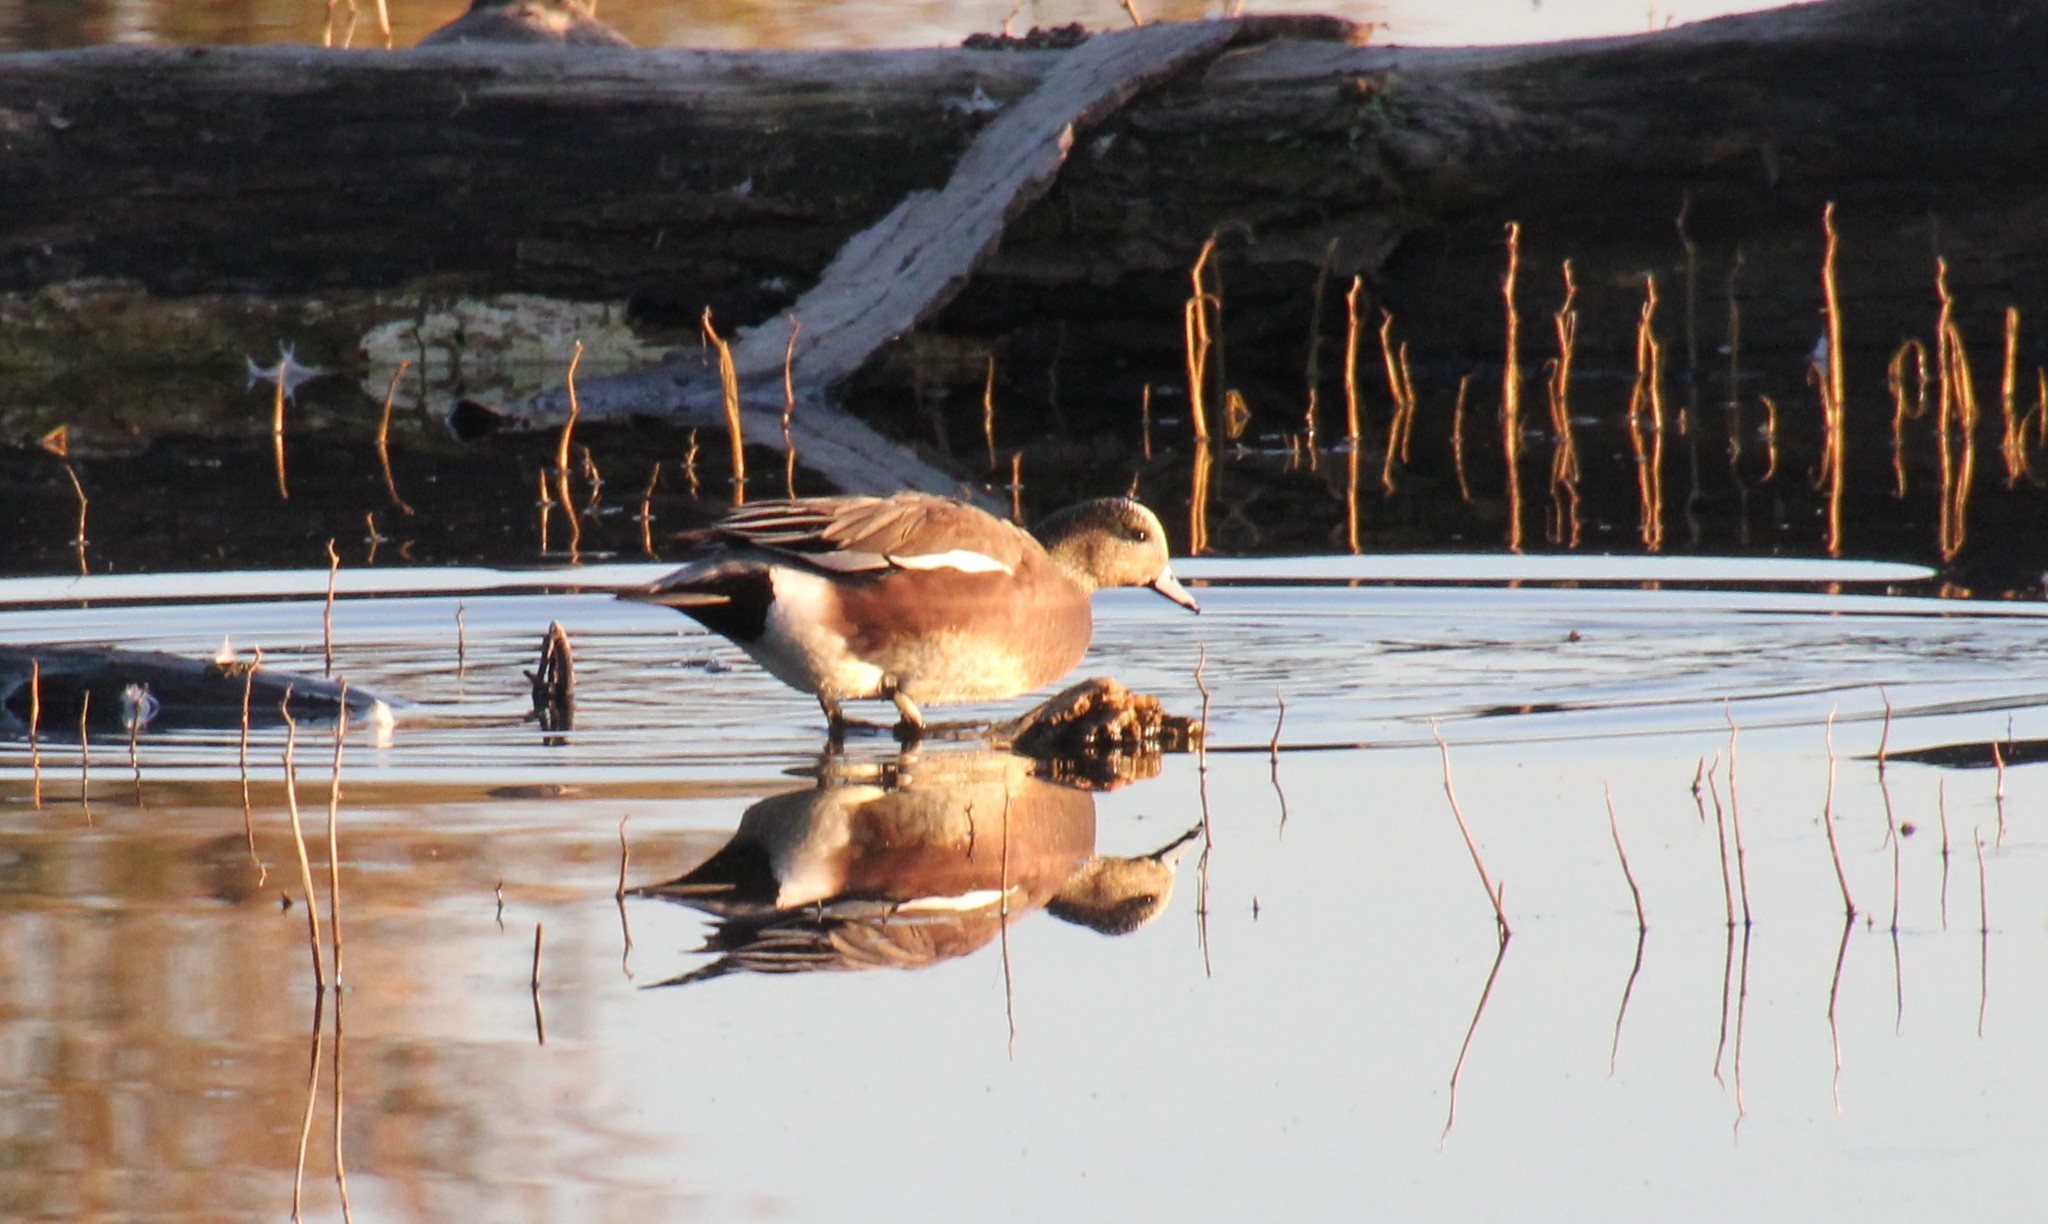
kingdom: Animalia
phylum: Chordata
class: Aves
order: Anseriformes
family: Anatidae
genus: Mareca
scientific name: Mareca americana
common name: American wigeon
